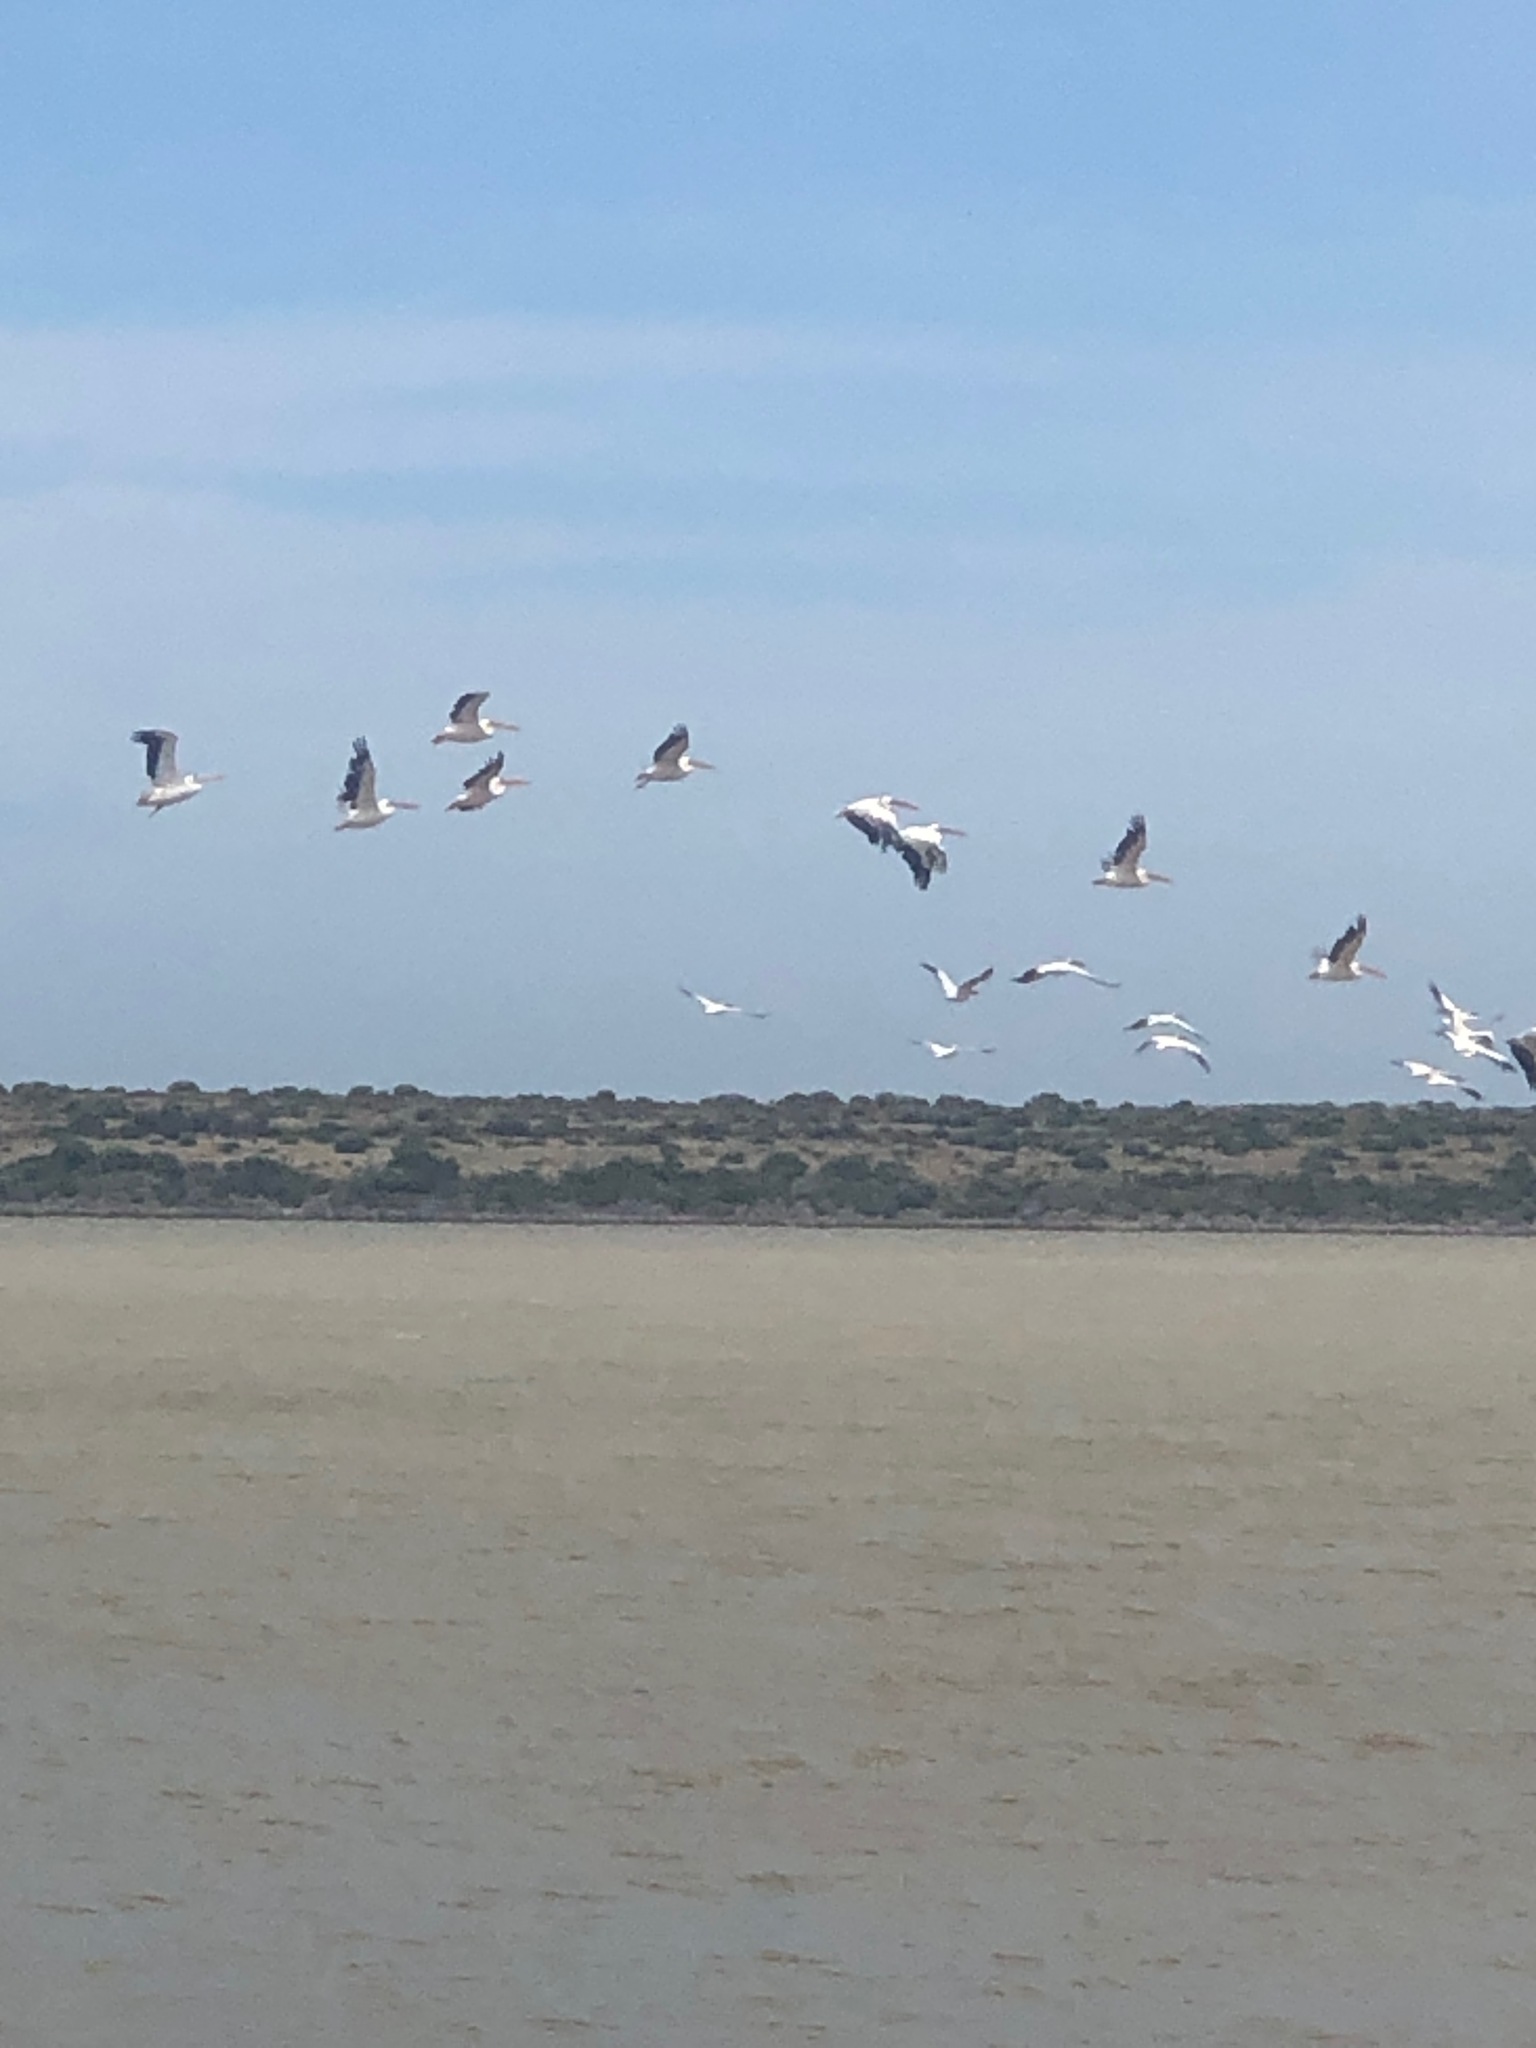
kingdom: Animalia
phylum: Chordata
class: Aves
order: Pelecaniformes
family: Pelecanidae
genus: Pelecanus
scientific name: Pelecanus onocrotalus
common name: Great white pelican
